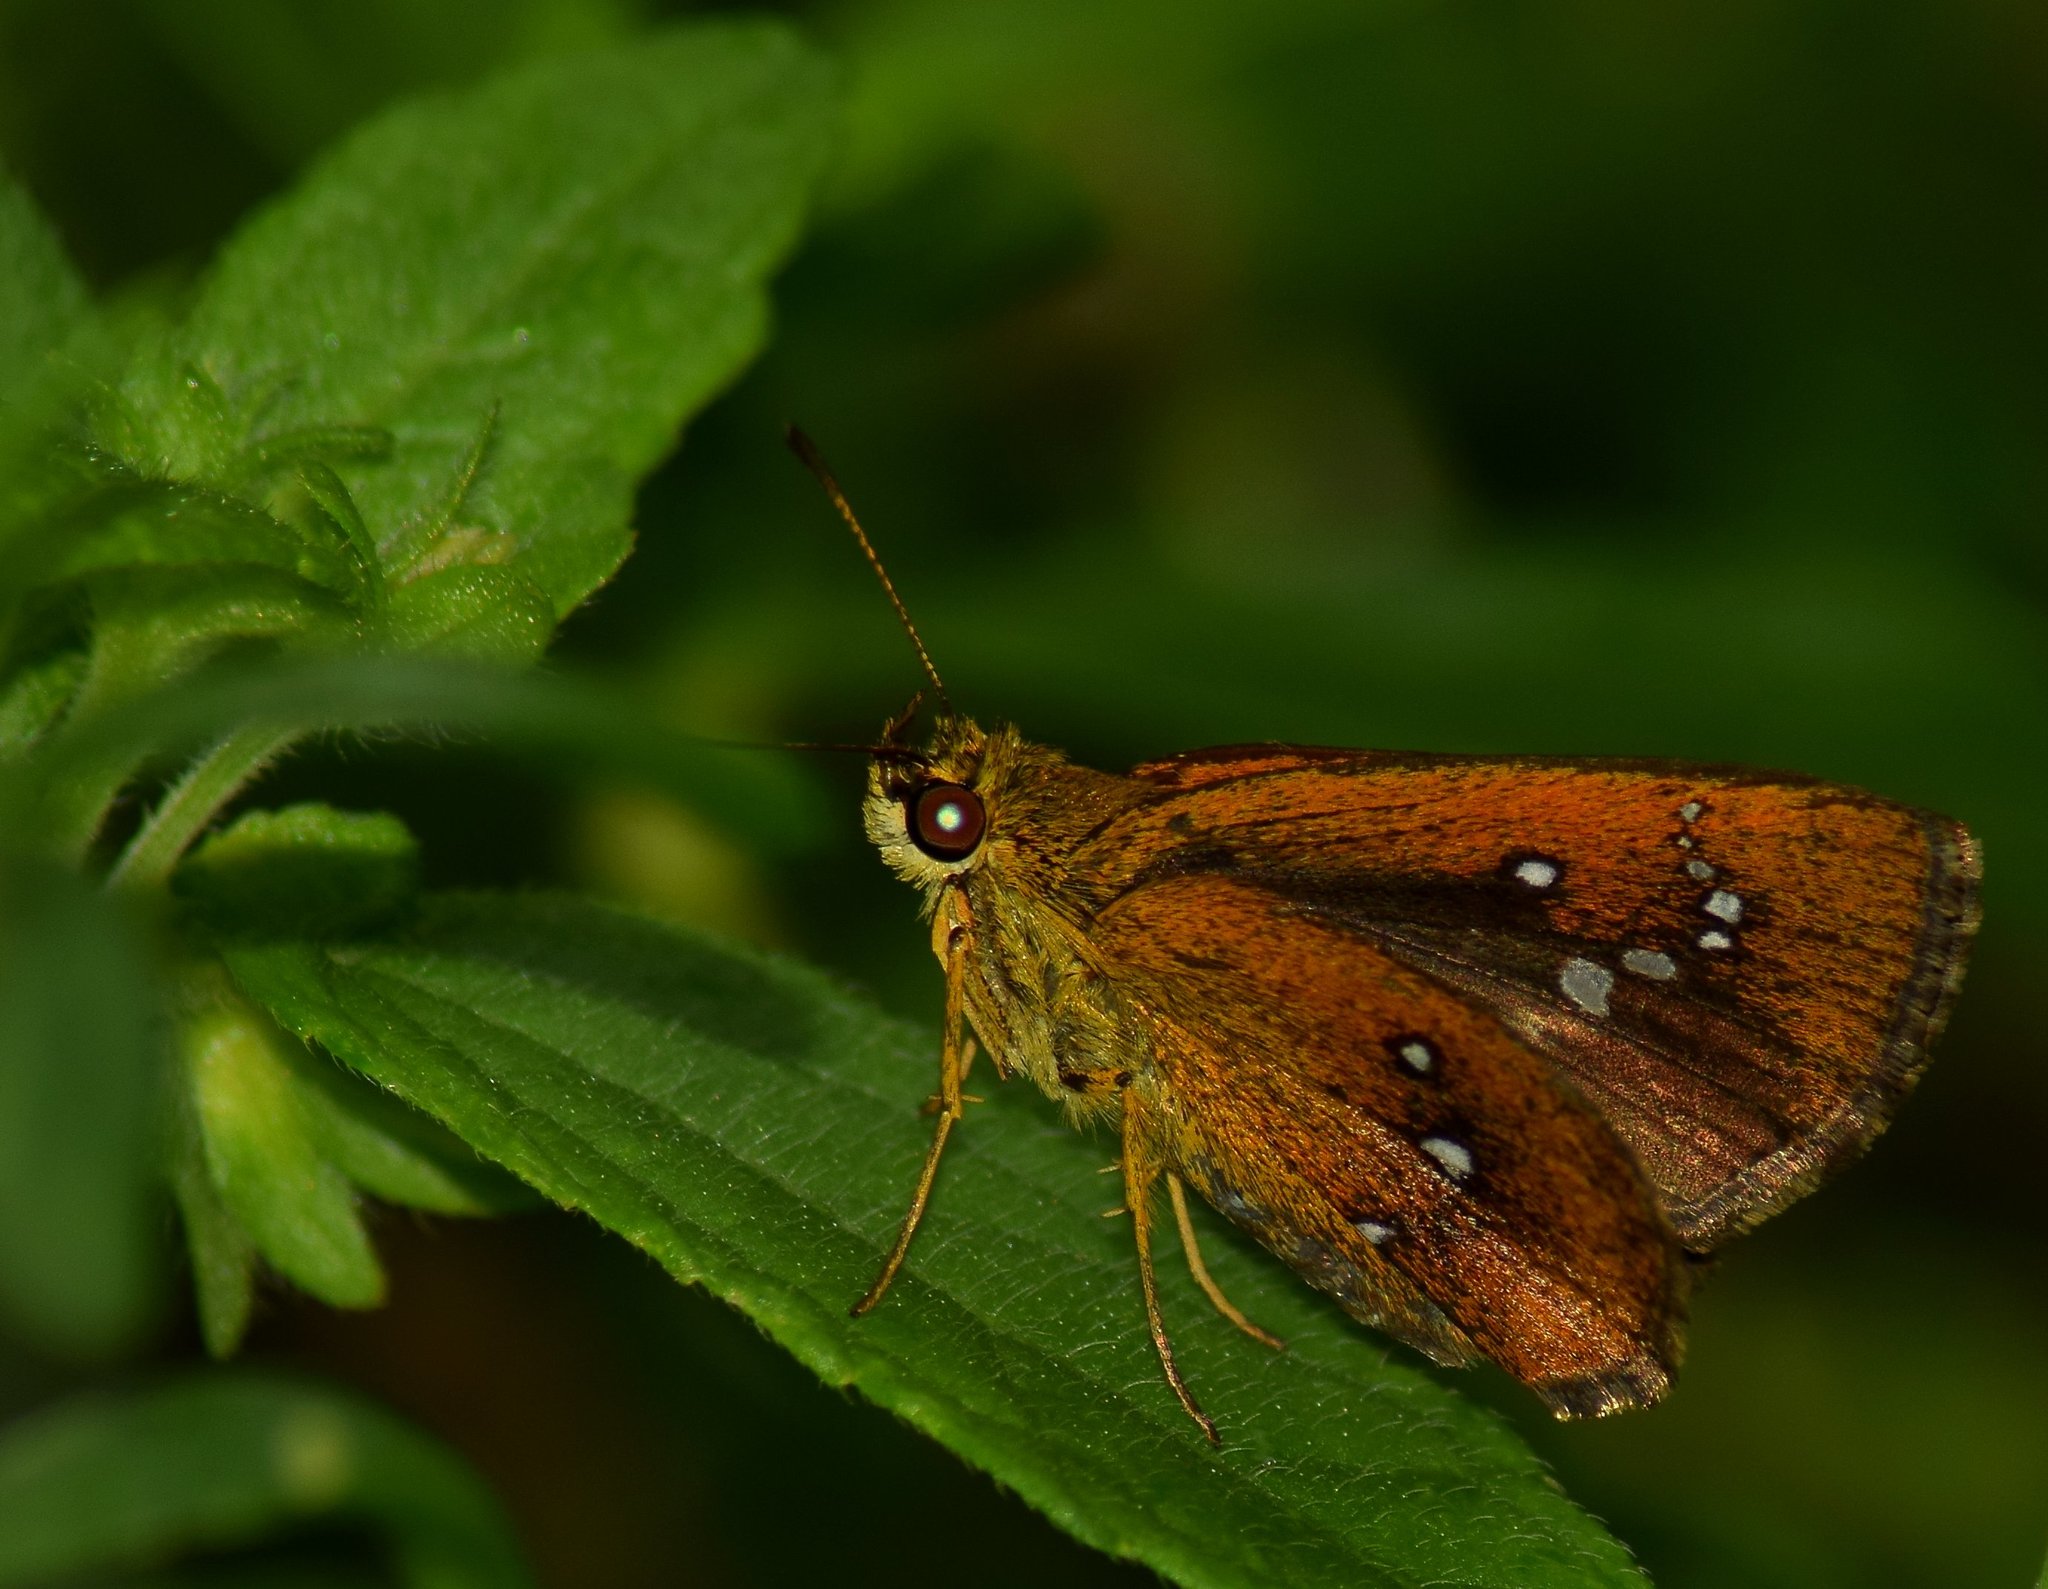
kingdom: Animalia
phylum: Arthropoda
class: Insecta
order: Lepidoptera
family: Hesperiidae
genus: Iambrix
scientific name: Iambrix salsala
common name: Chestnut bob
